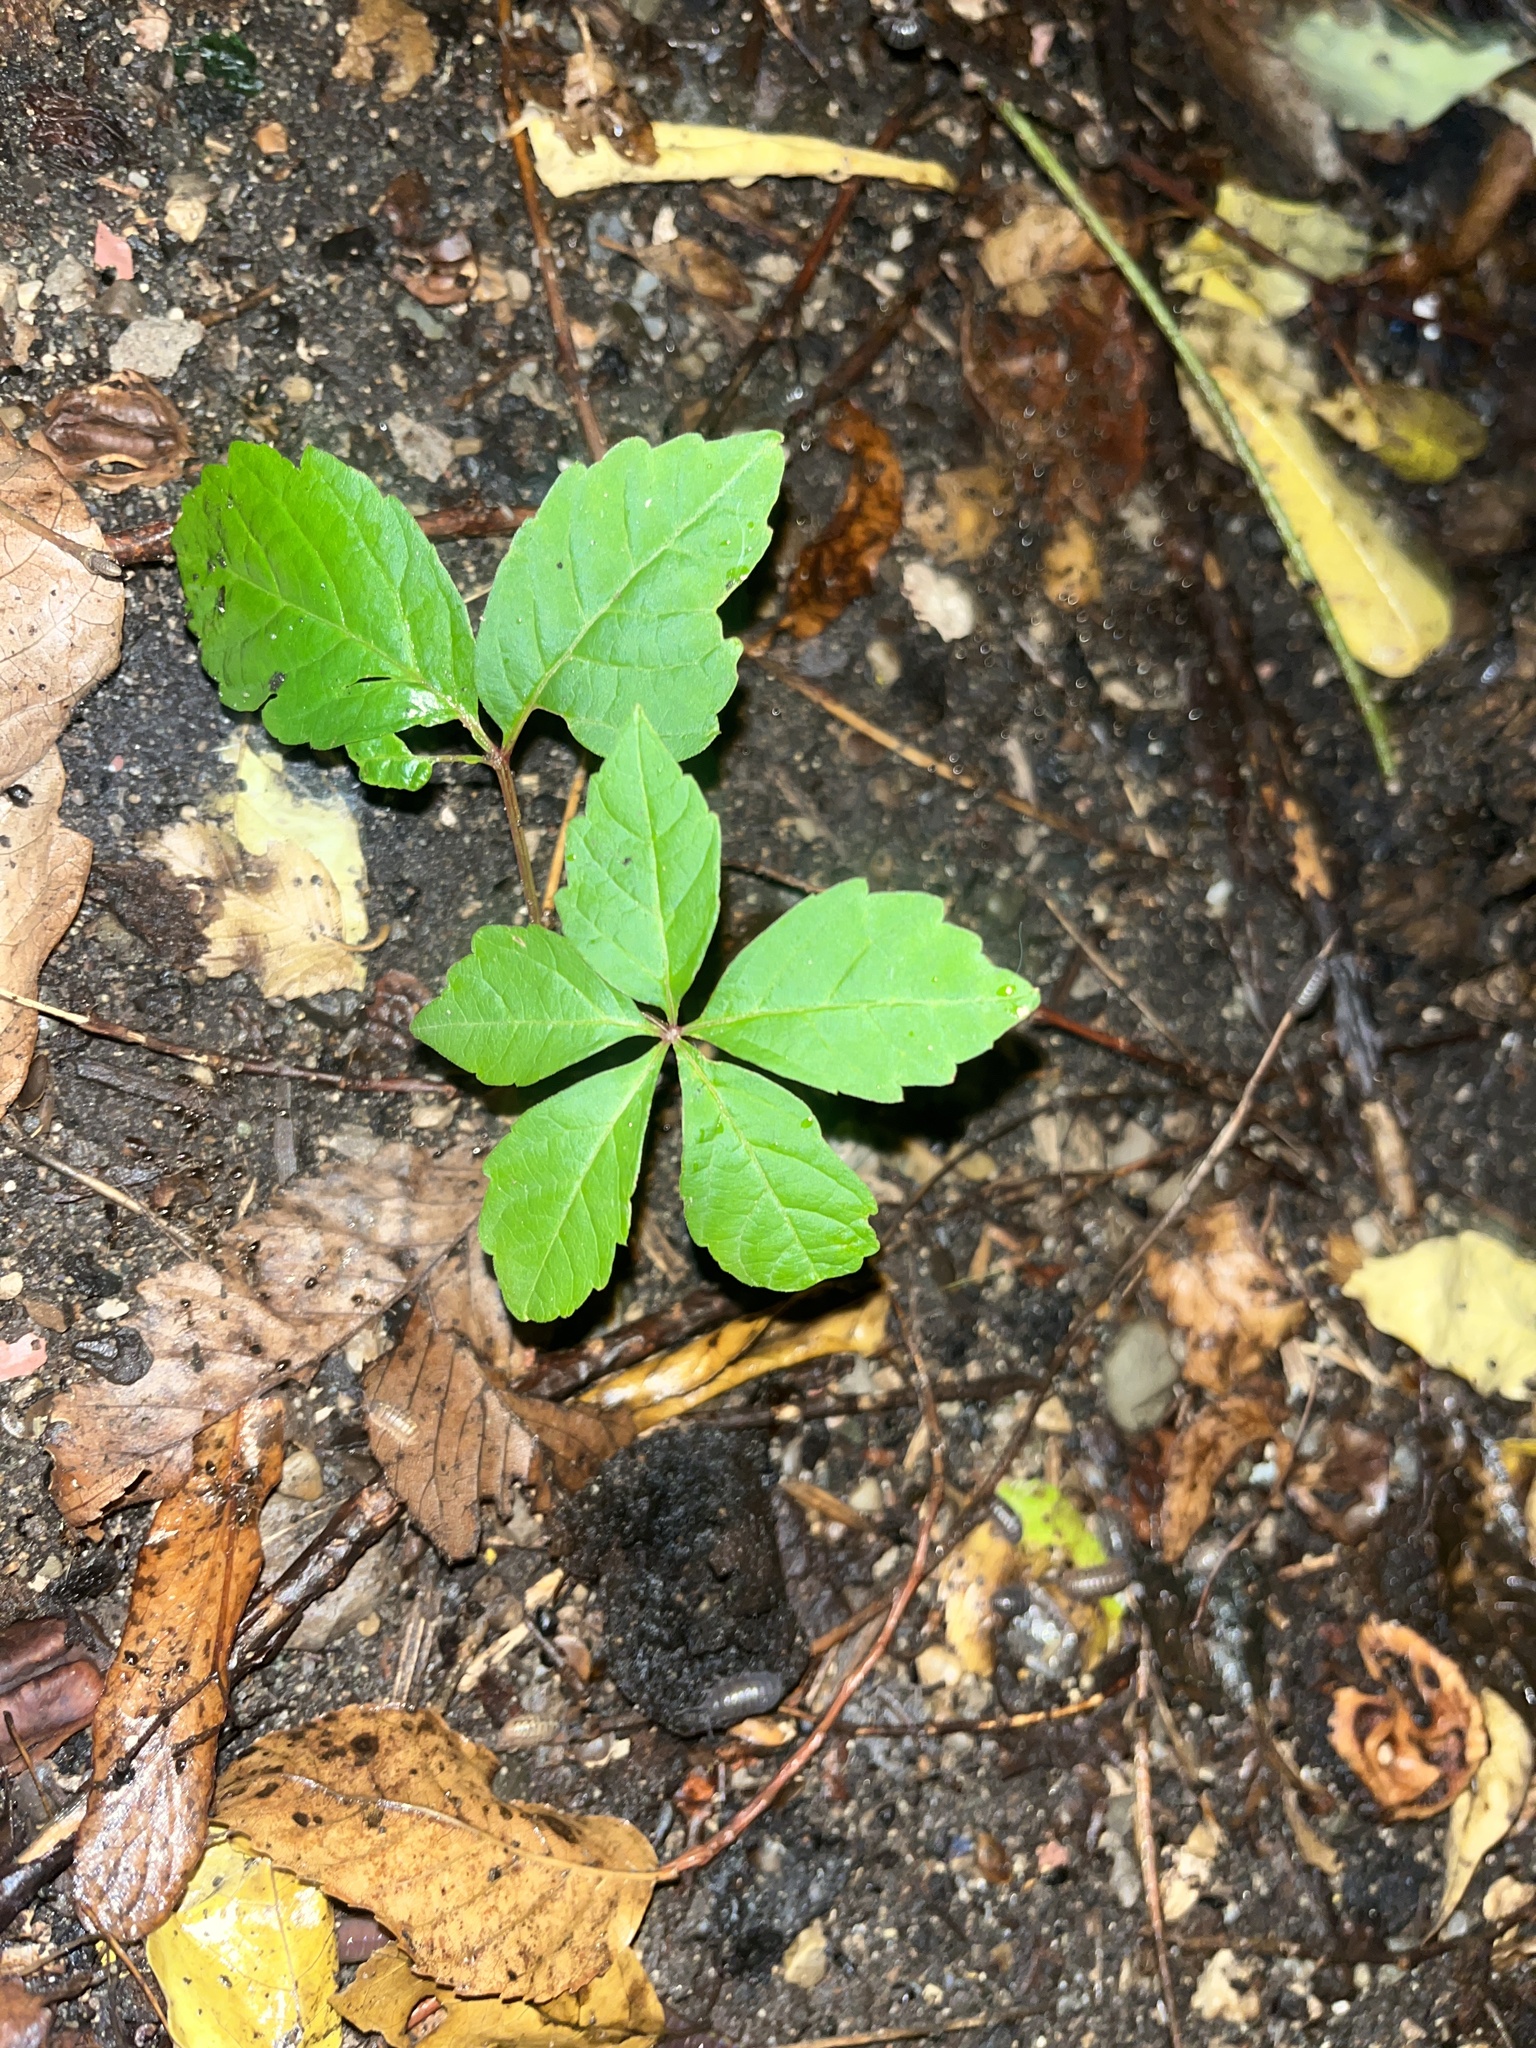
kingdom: Plantae
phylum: Tracheophyta
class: Magnoliopsida
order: Vitales
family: Vitaceae
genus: Parthenocissus
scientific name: Parthenocissus quinquefolia
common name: Virginia-creeper
